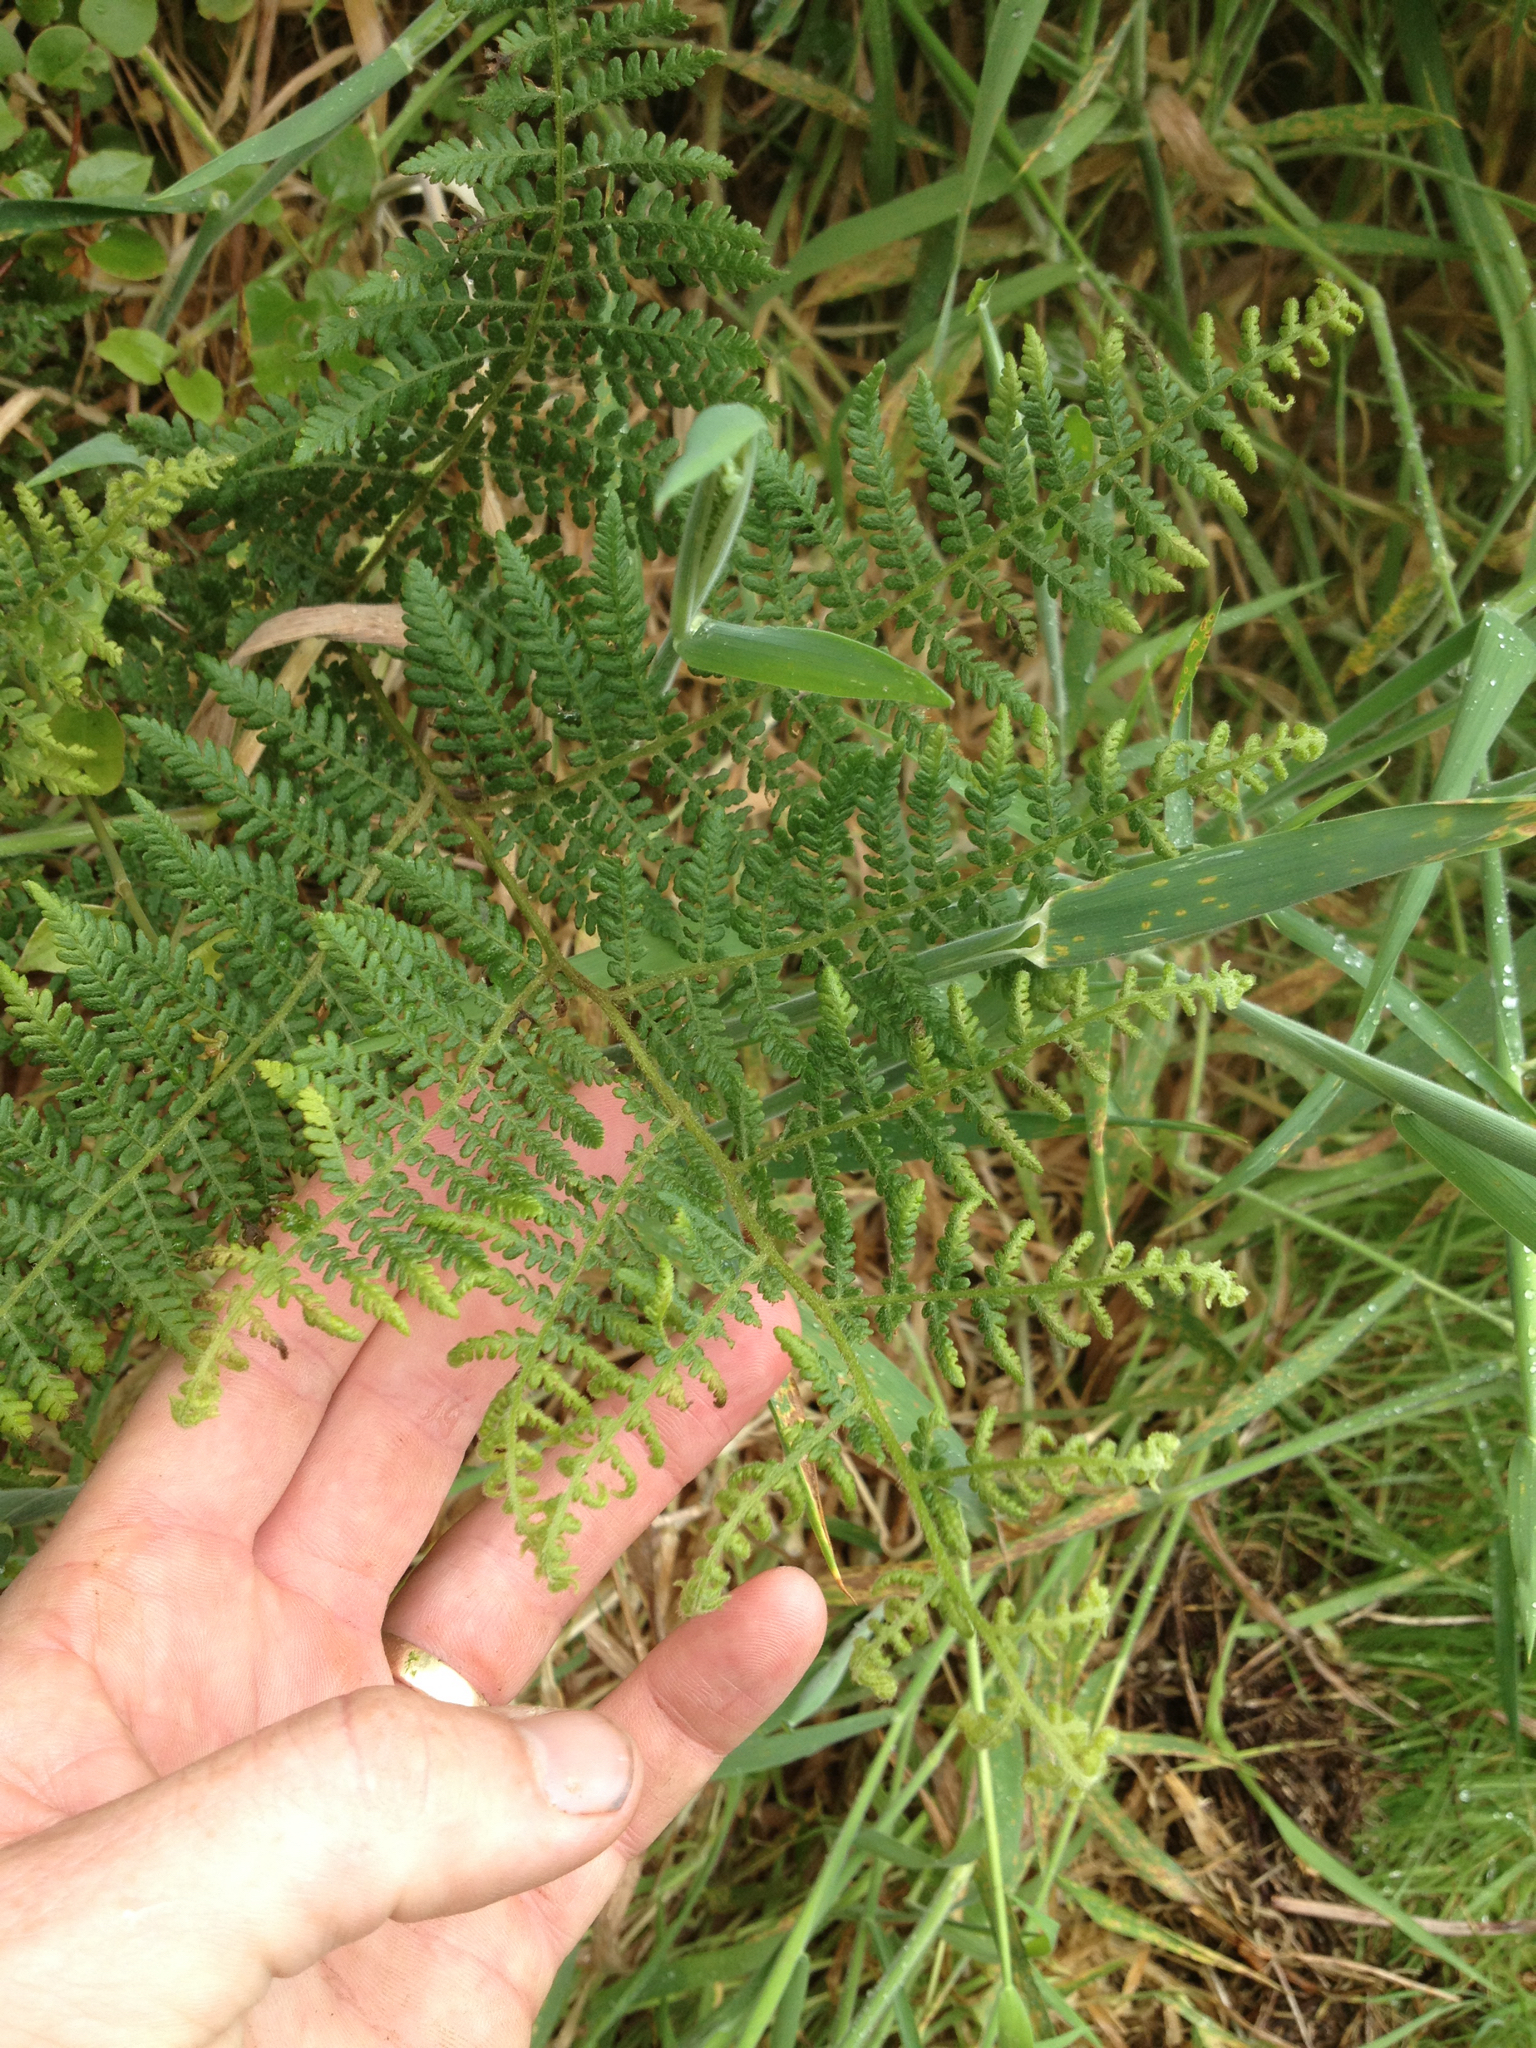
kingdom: Plantae
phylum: Tracheophyta
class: Polypodiopsida
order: Polypodiales
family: Dennstaedtiaceae
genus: Hypolepis
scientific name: Hypolepis ambigua
